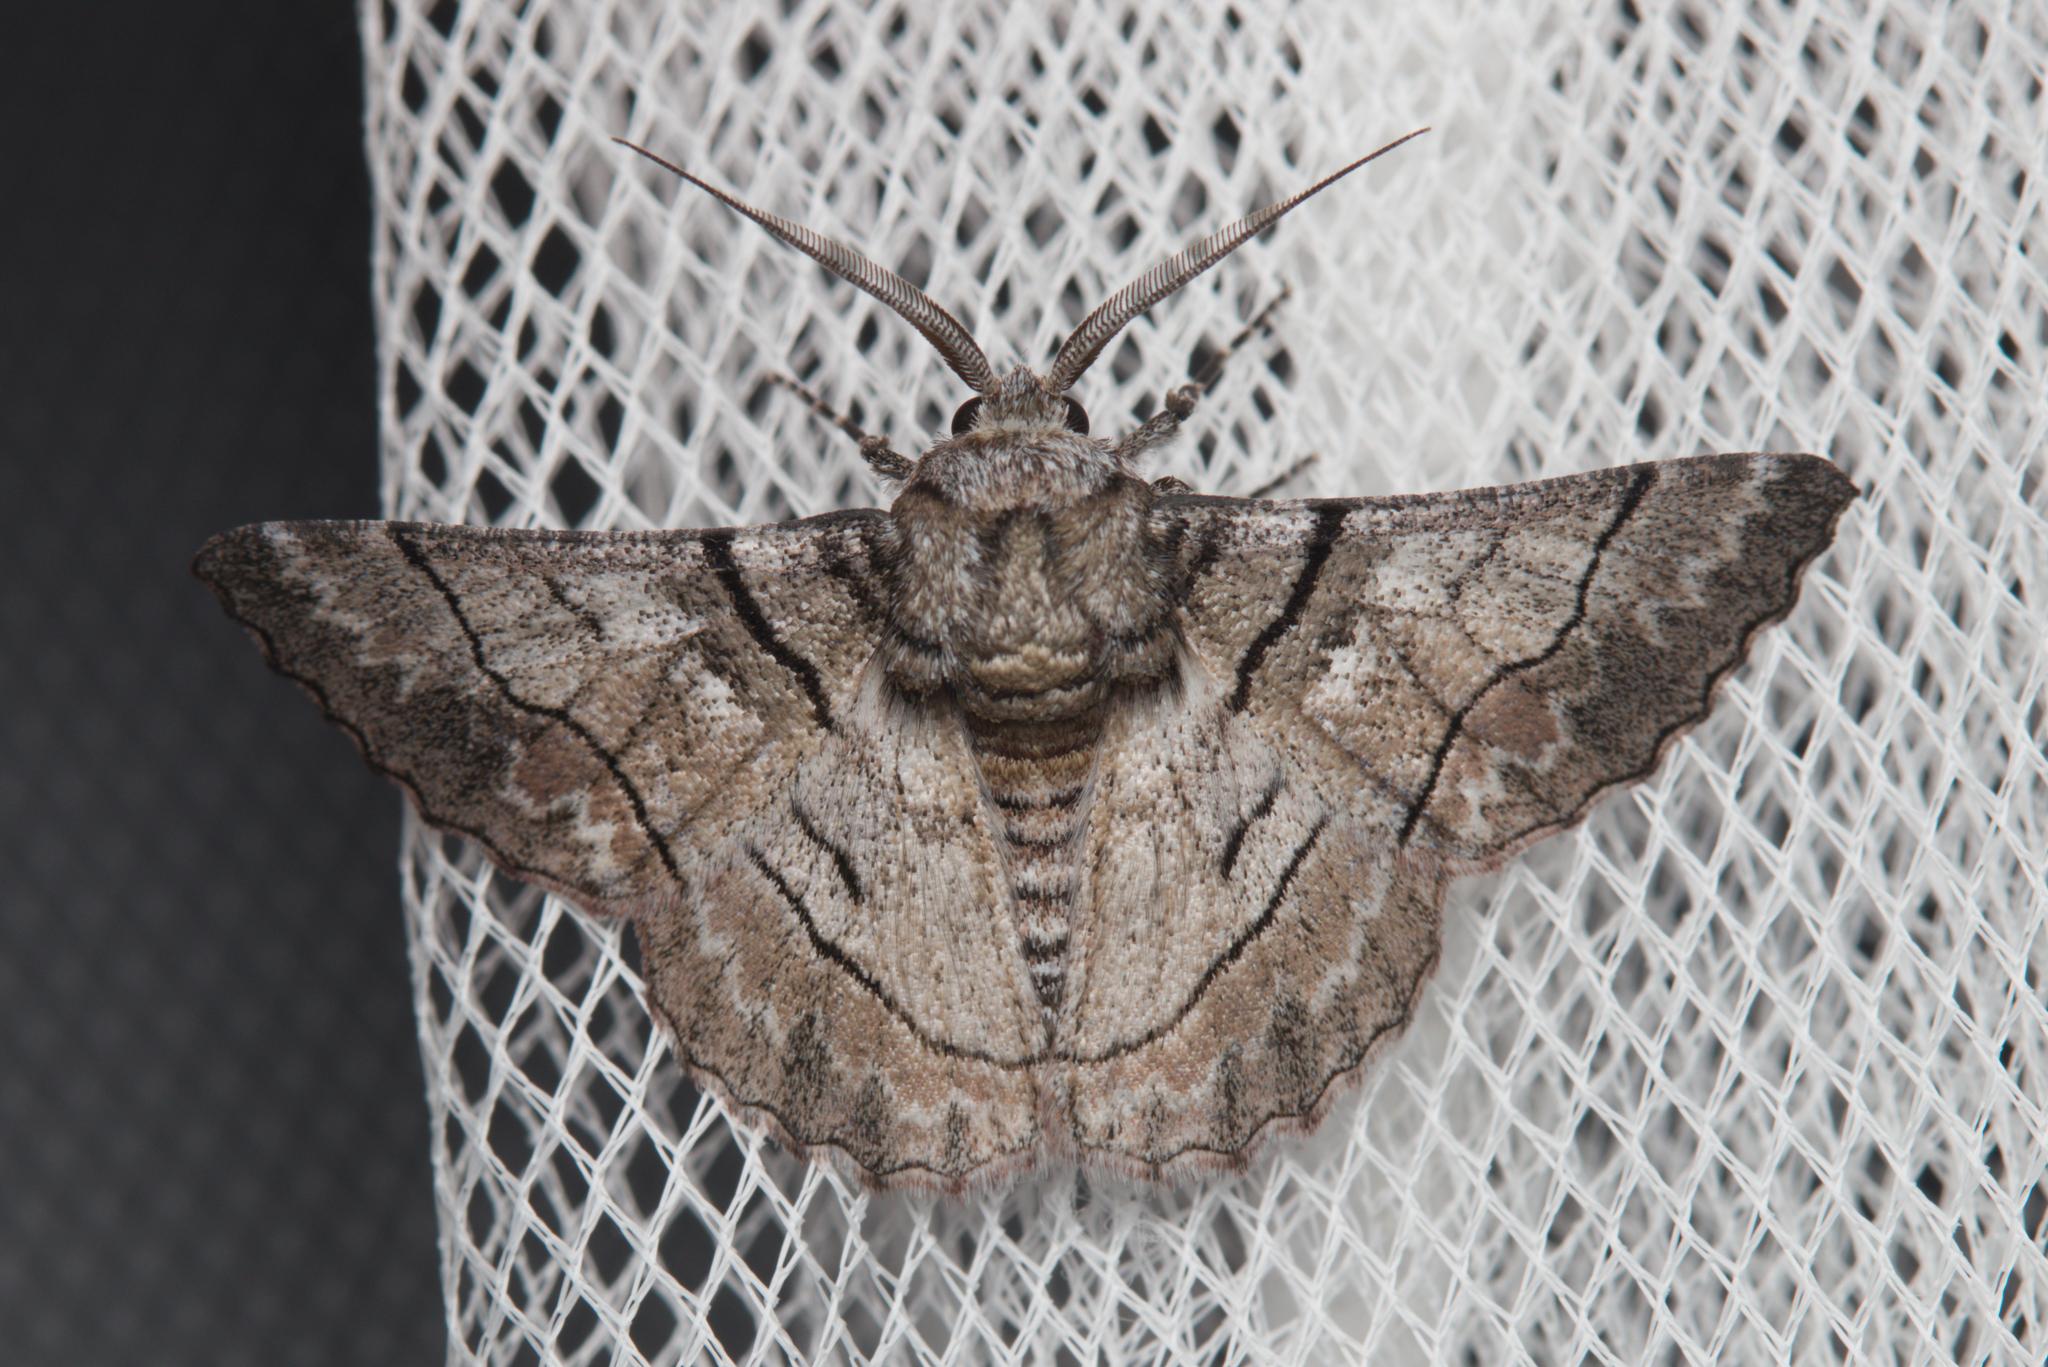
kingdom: Animalia
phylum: Arthropoda
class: Insecta
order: Lepidoptera
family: Geometridae
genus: Hypobapta
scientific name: Hypobapta diffundens
